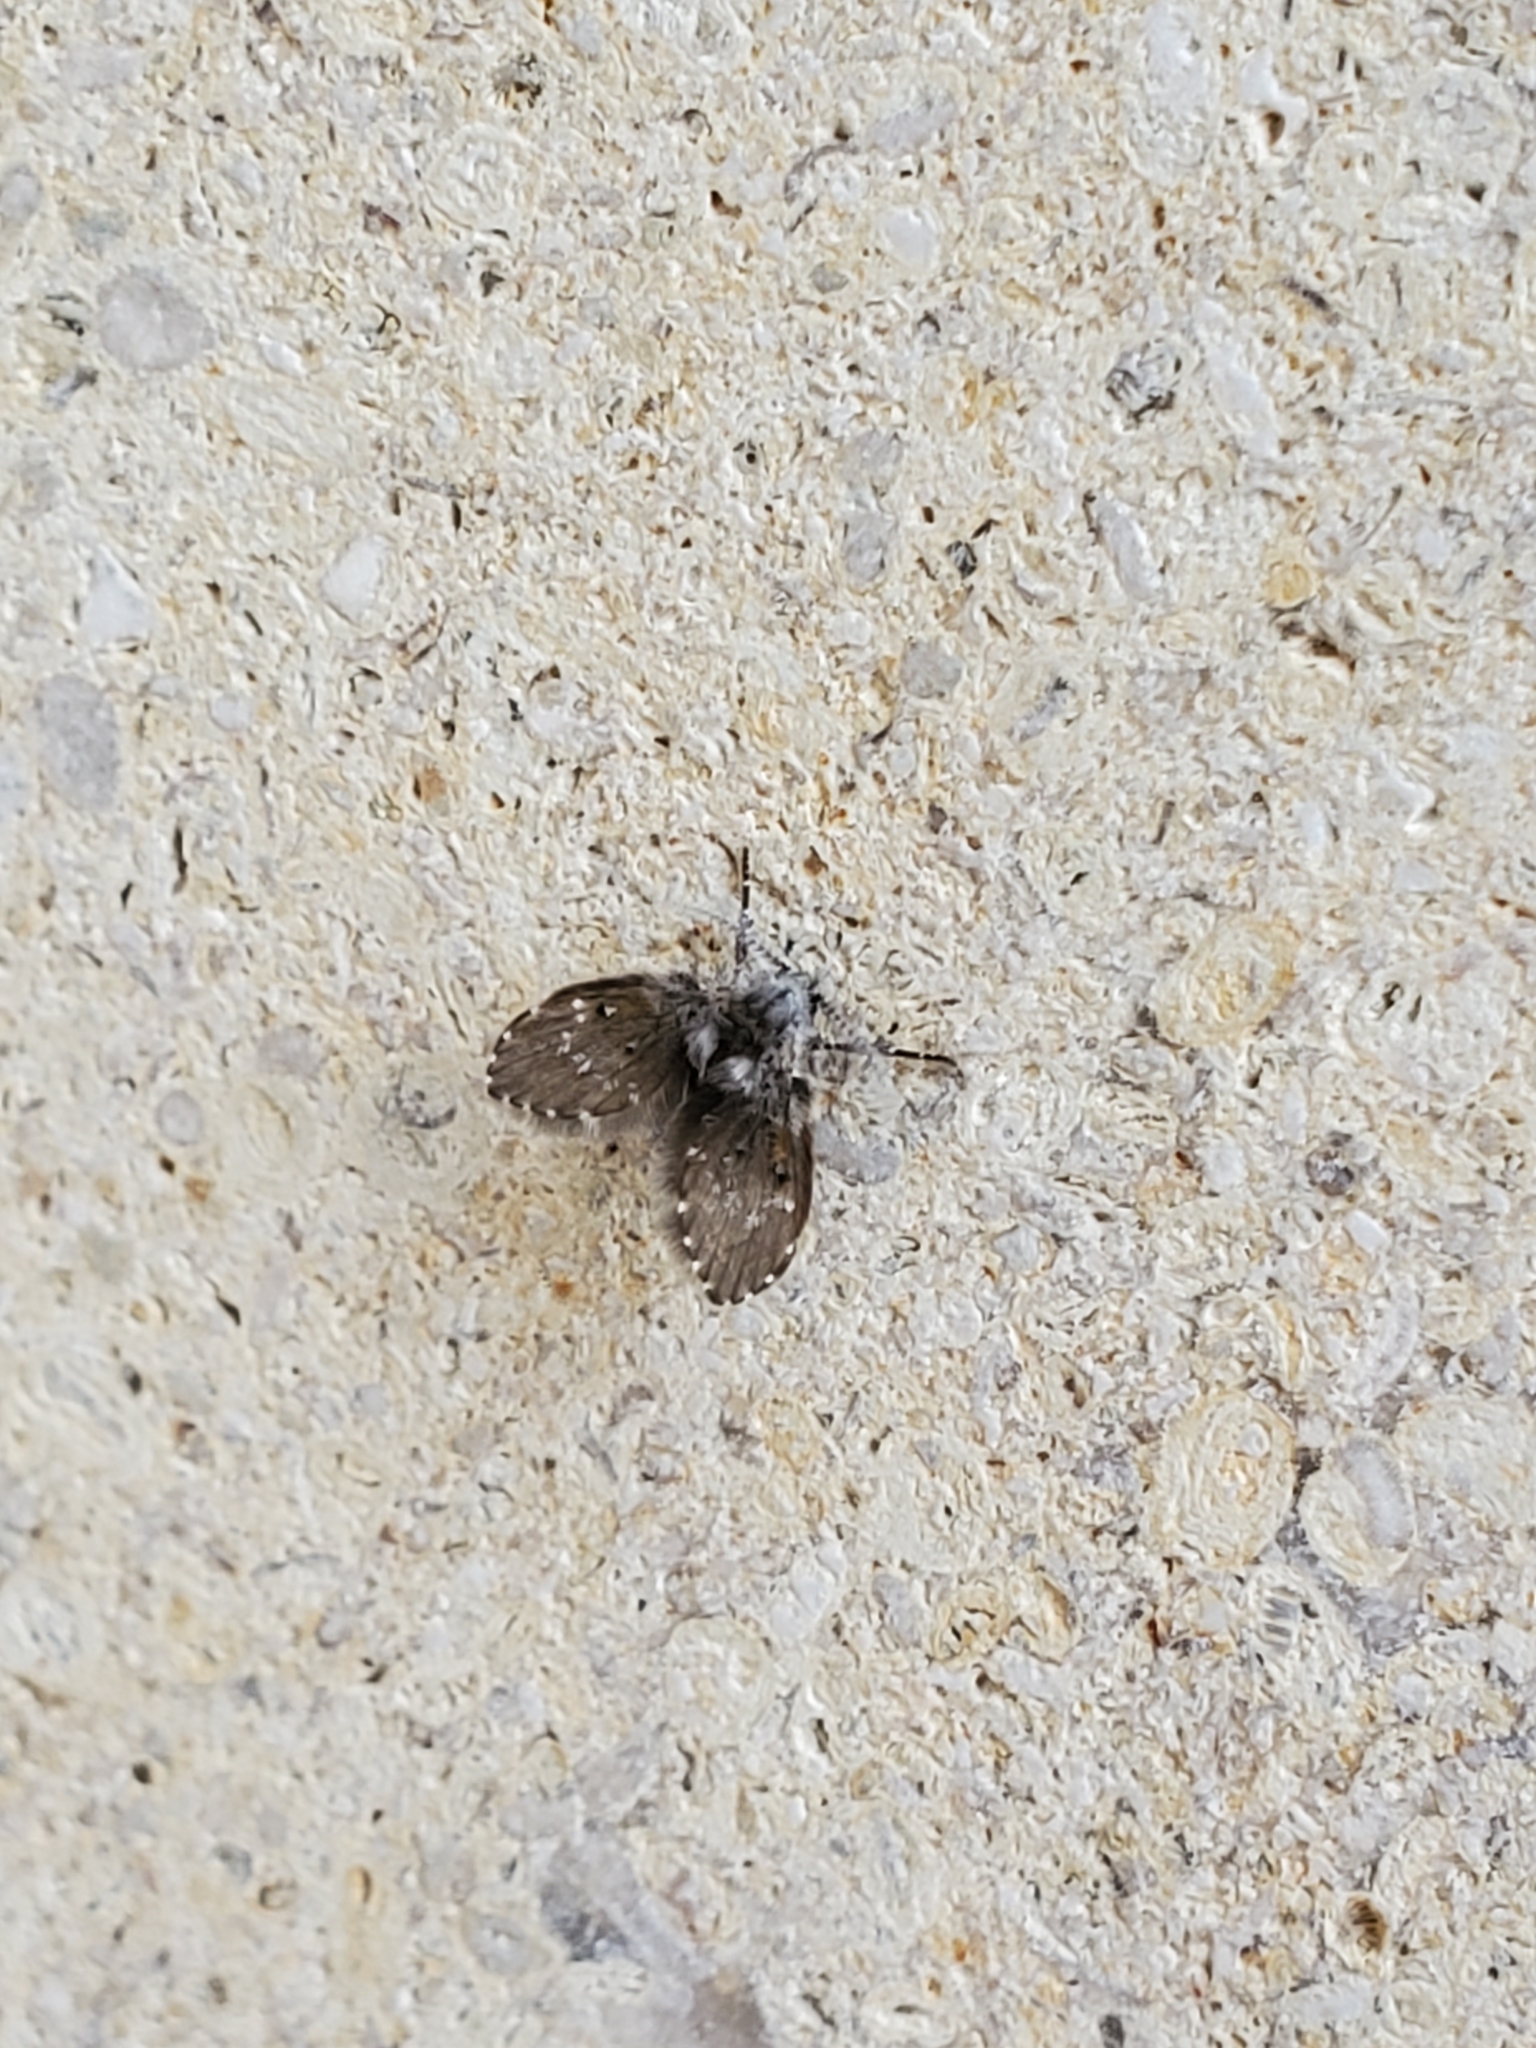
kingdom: Animalia
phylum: Arthropoda
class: Insecta
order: Diptera
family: Psychodidae
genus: Clogmia
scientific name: Clogmia albipunctatus
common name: White-spotted moth fly
